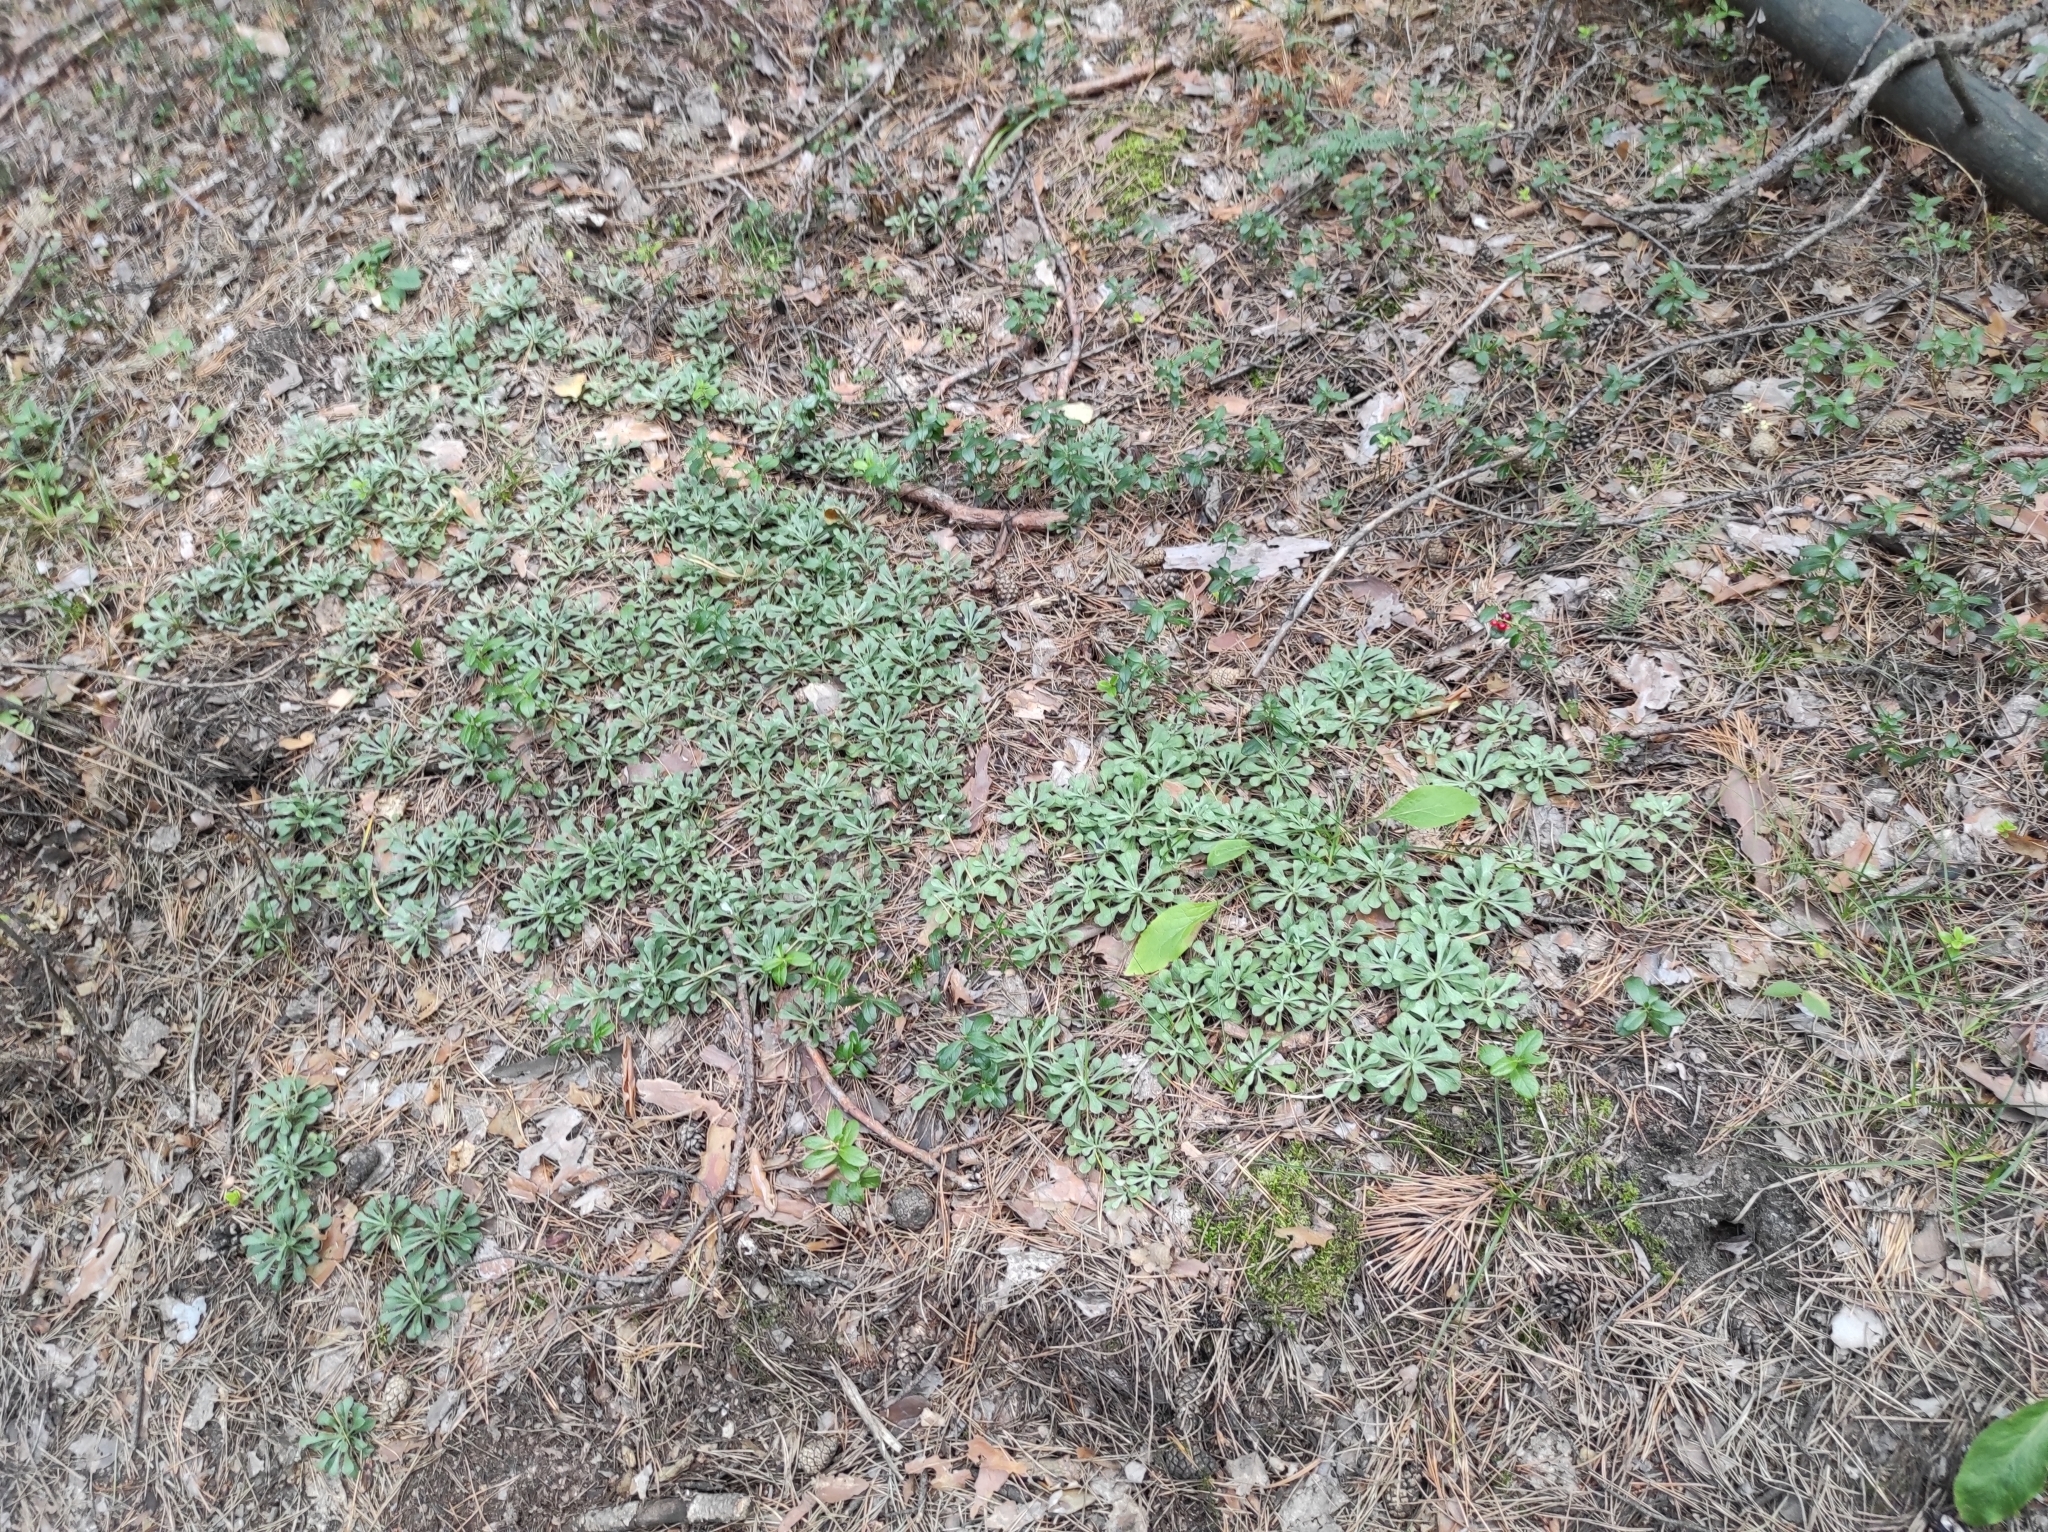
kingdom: Plantae
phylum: Tracheophyta
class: Magnoliopsida
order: Asterales
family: Asteraceae
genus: Antennaria
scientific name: Antennaria dioica
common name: Mountain everlasting
